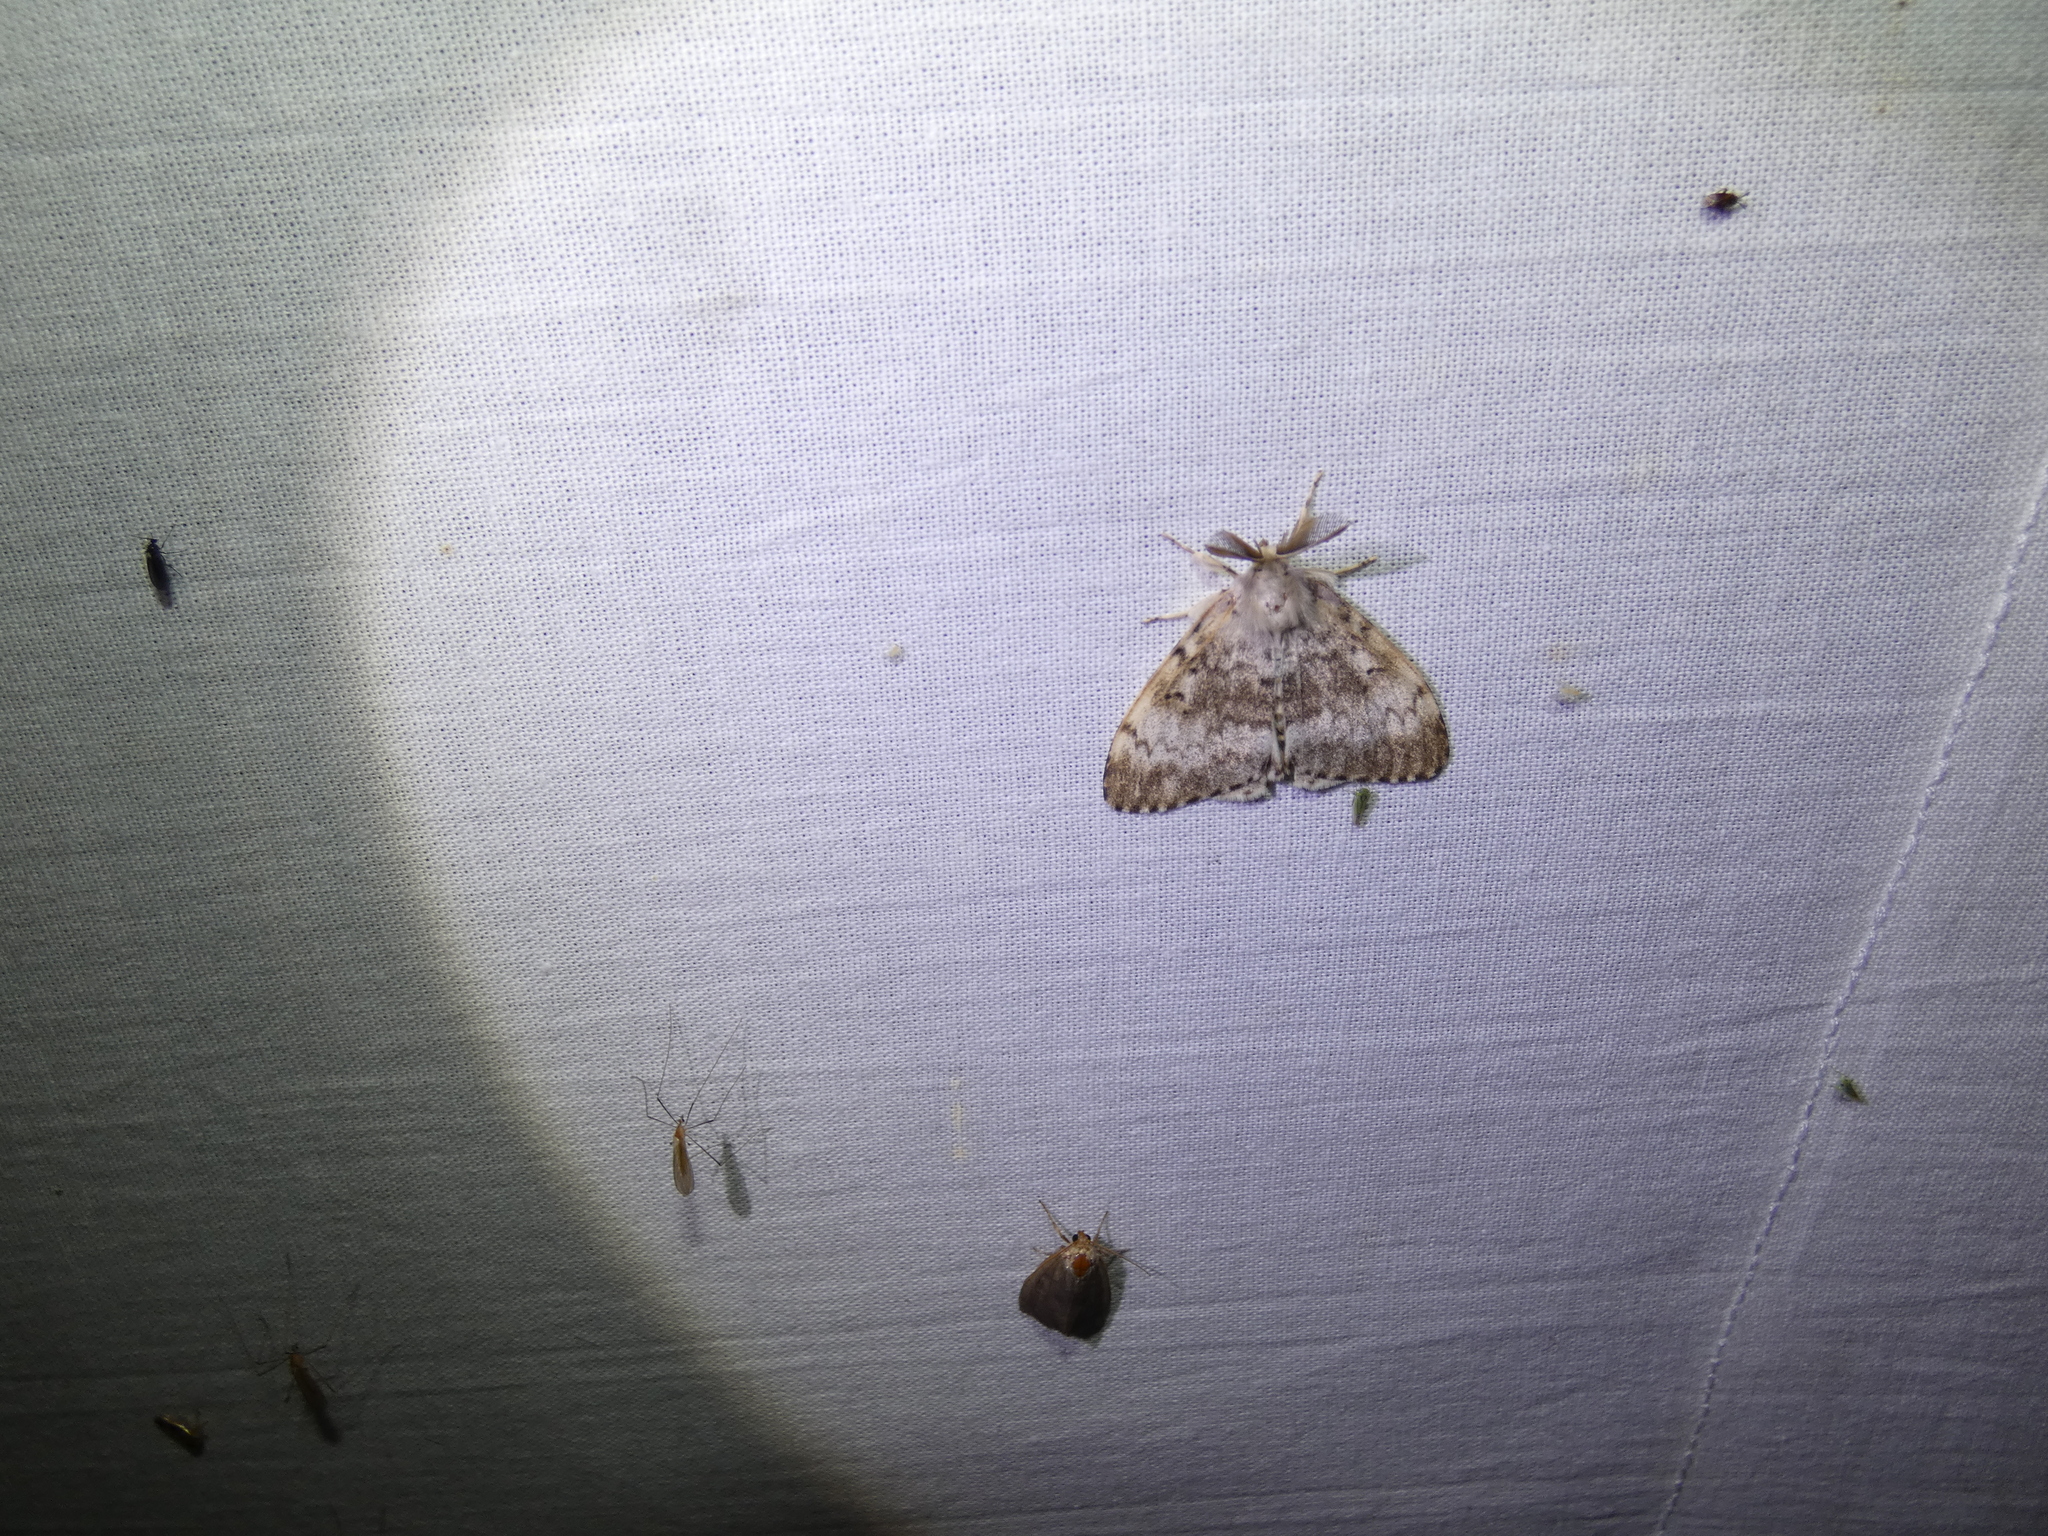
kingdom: Animalia
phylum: Arthropoda
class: Insecta
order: Lepidoptera
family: Erebidae
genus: Lymantria
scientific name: Lymantria dispar
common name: Gypsy moth
